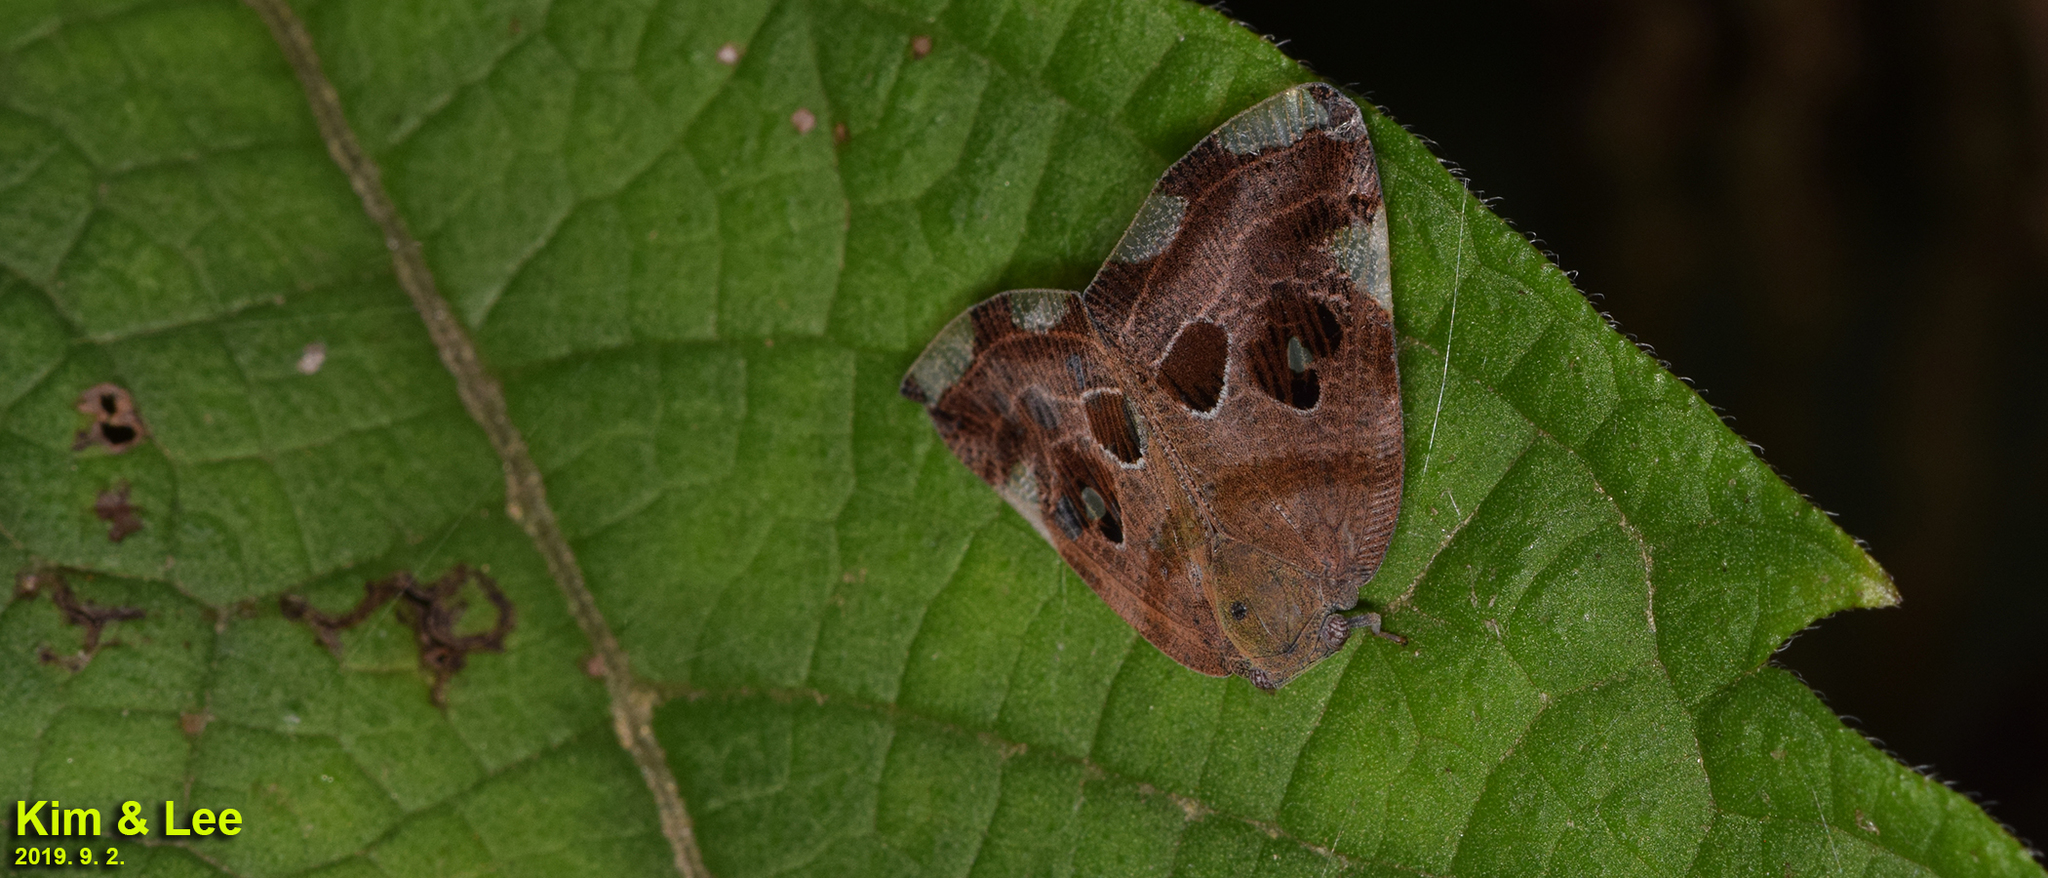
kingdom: Animalia
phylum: Arthropoda
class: Insecta
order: Hemiptera
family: Ricaniidae
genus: Ricania
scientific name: Ricania speculum
